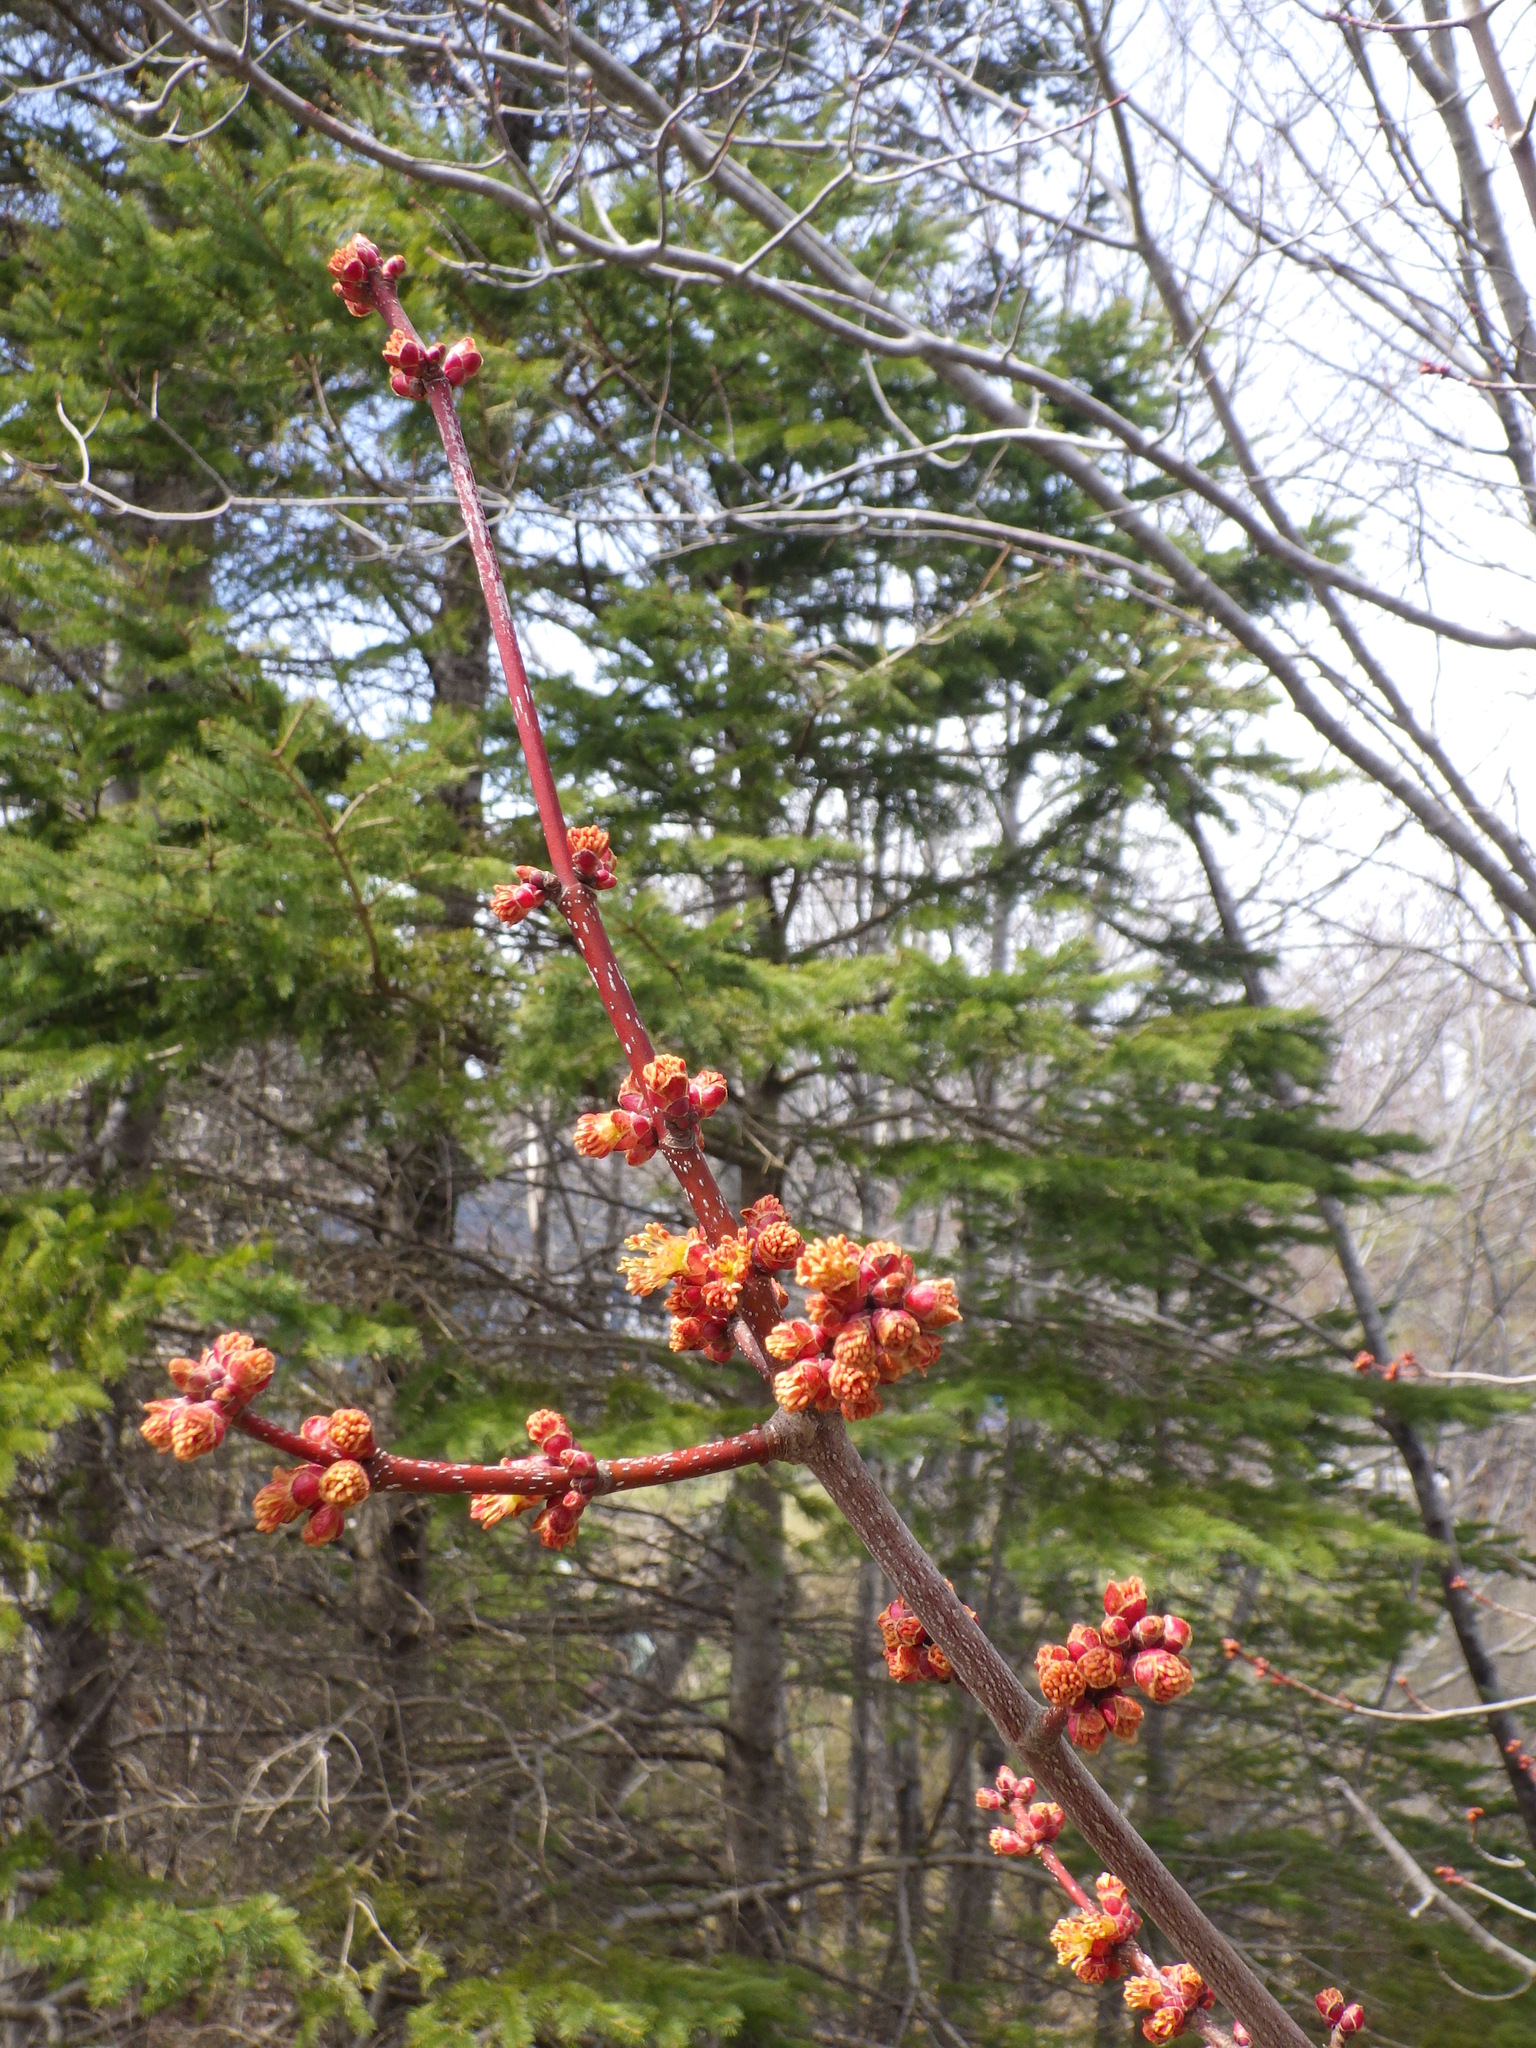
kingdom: Plantae
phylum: Tracheophyta
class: Magnoliopsida
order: Sapindales
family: Sapindaceae
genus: Acer
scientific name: Acer rubrum
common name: Red maple
